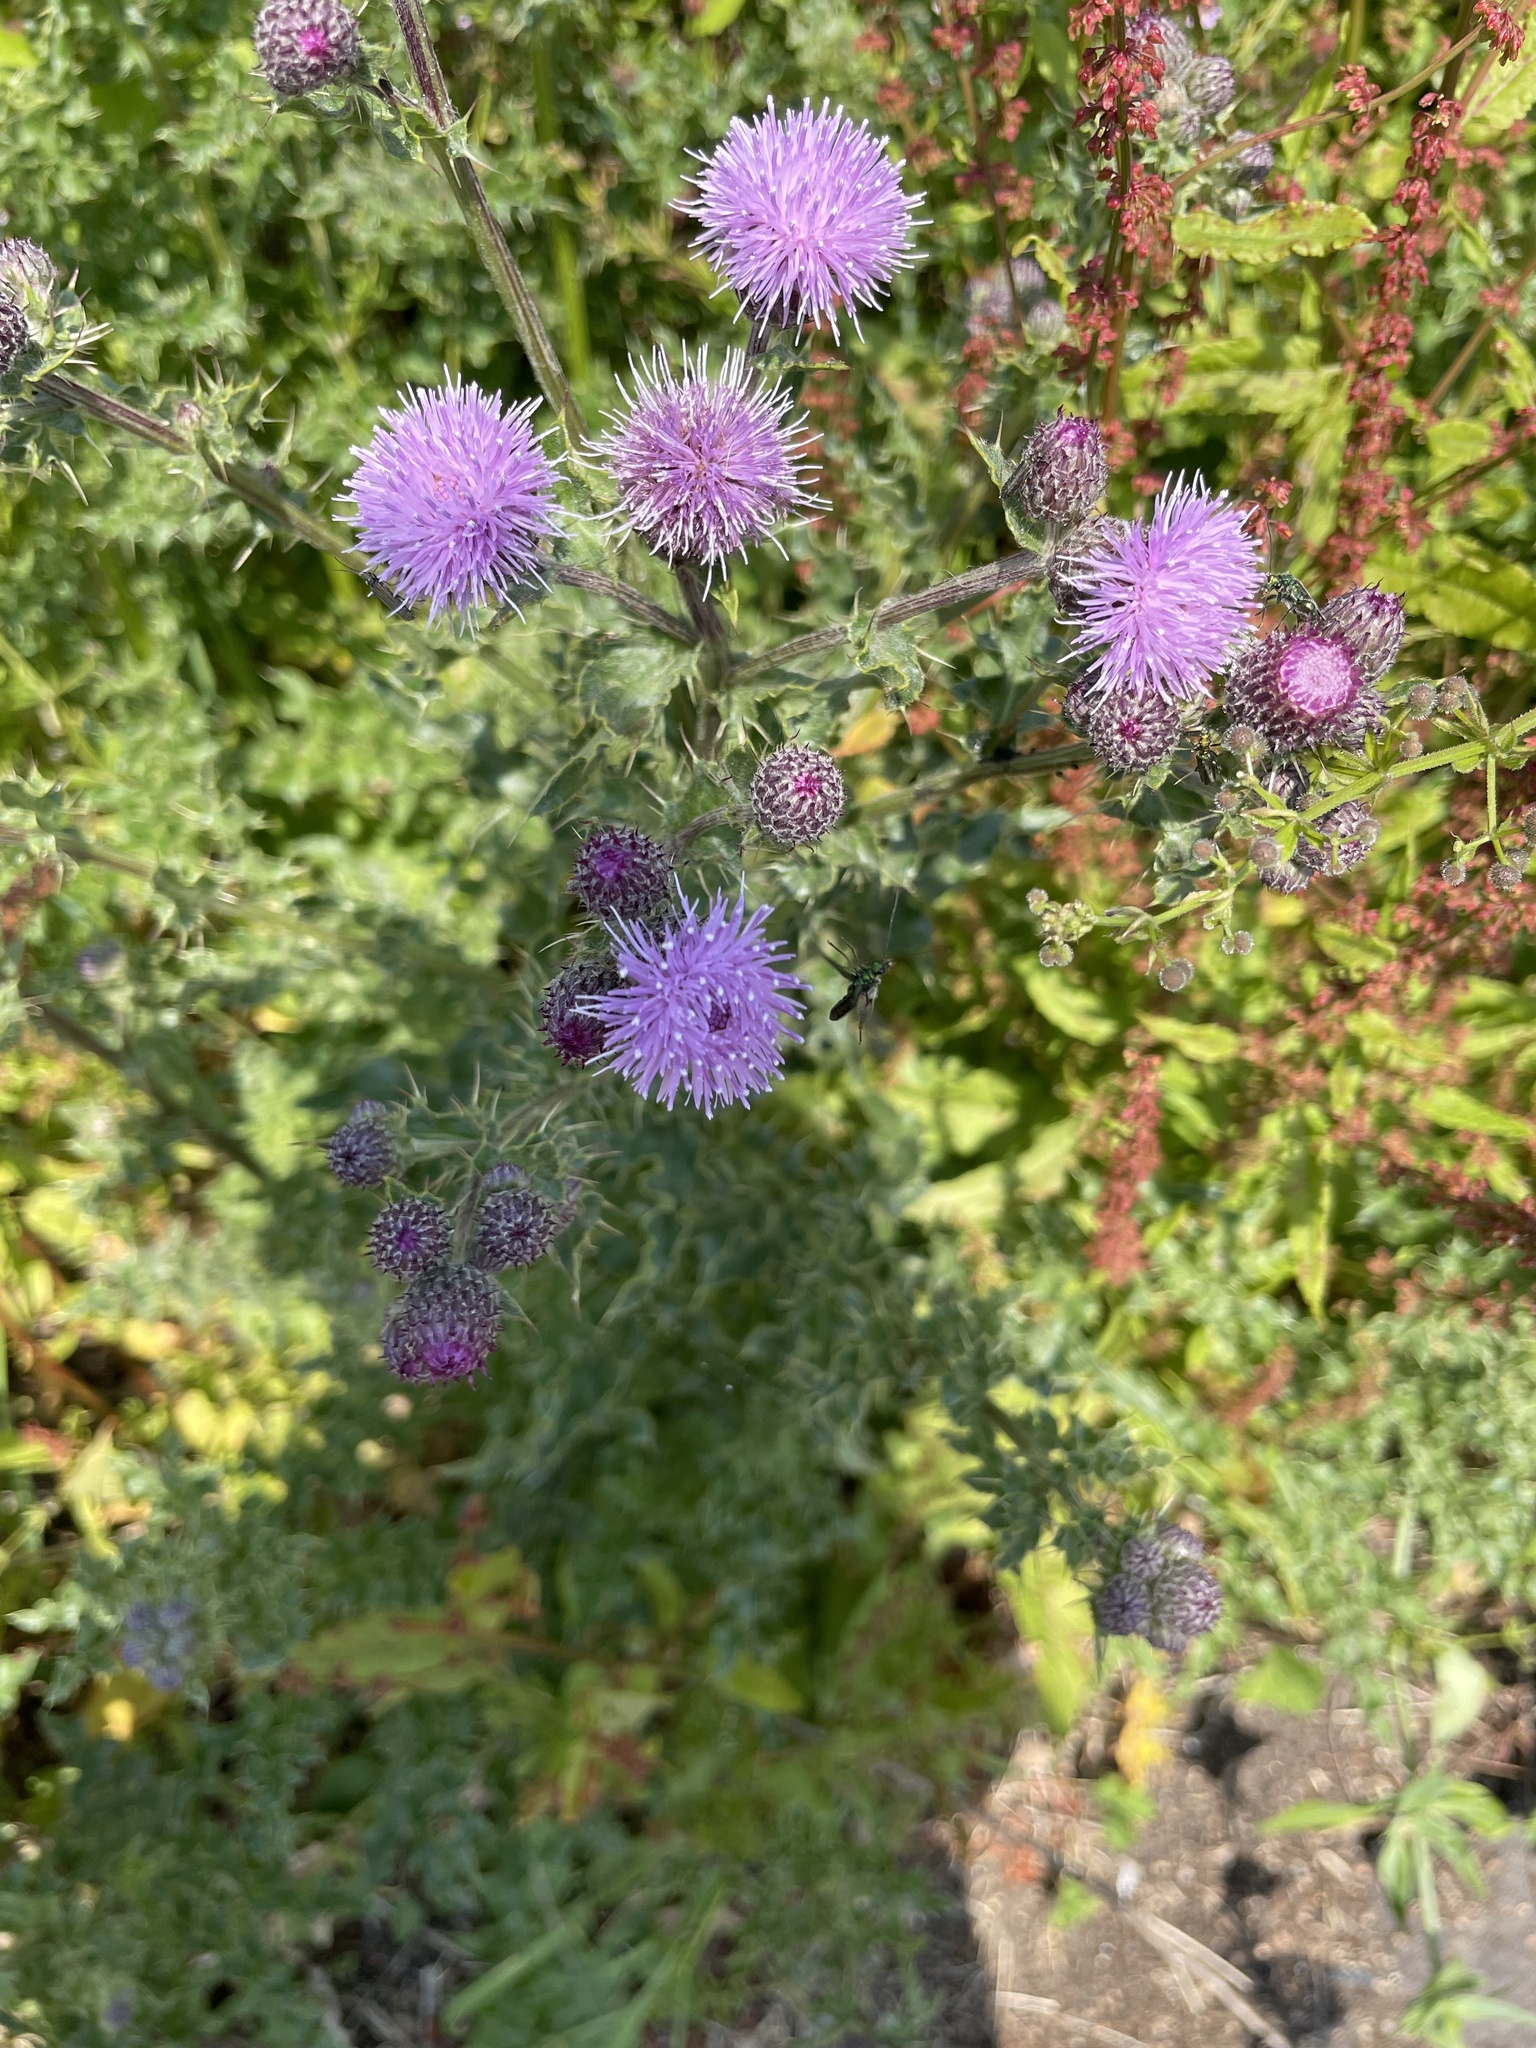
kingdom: Plantae
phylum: Tracheophyta
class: Magnoliopsida
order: Asterales
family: Asteraceae
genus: Cirsium
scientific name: Cirsium arvense
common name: Creeping thistle
